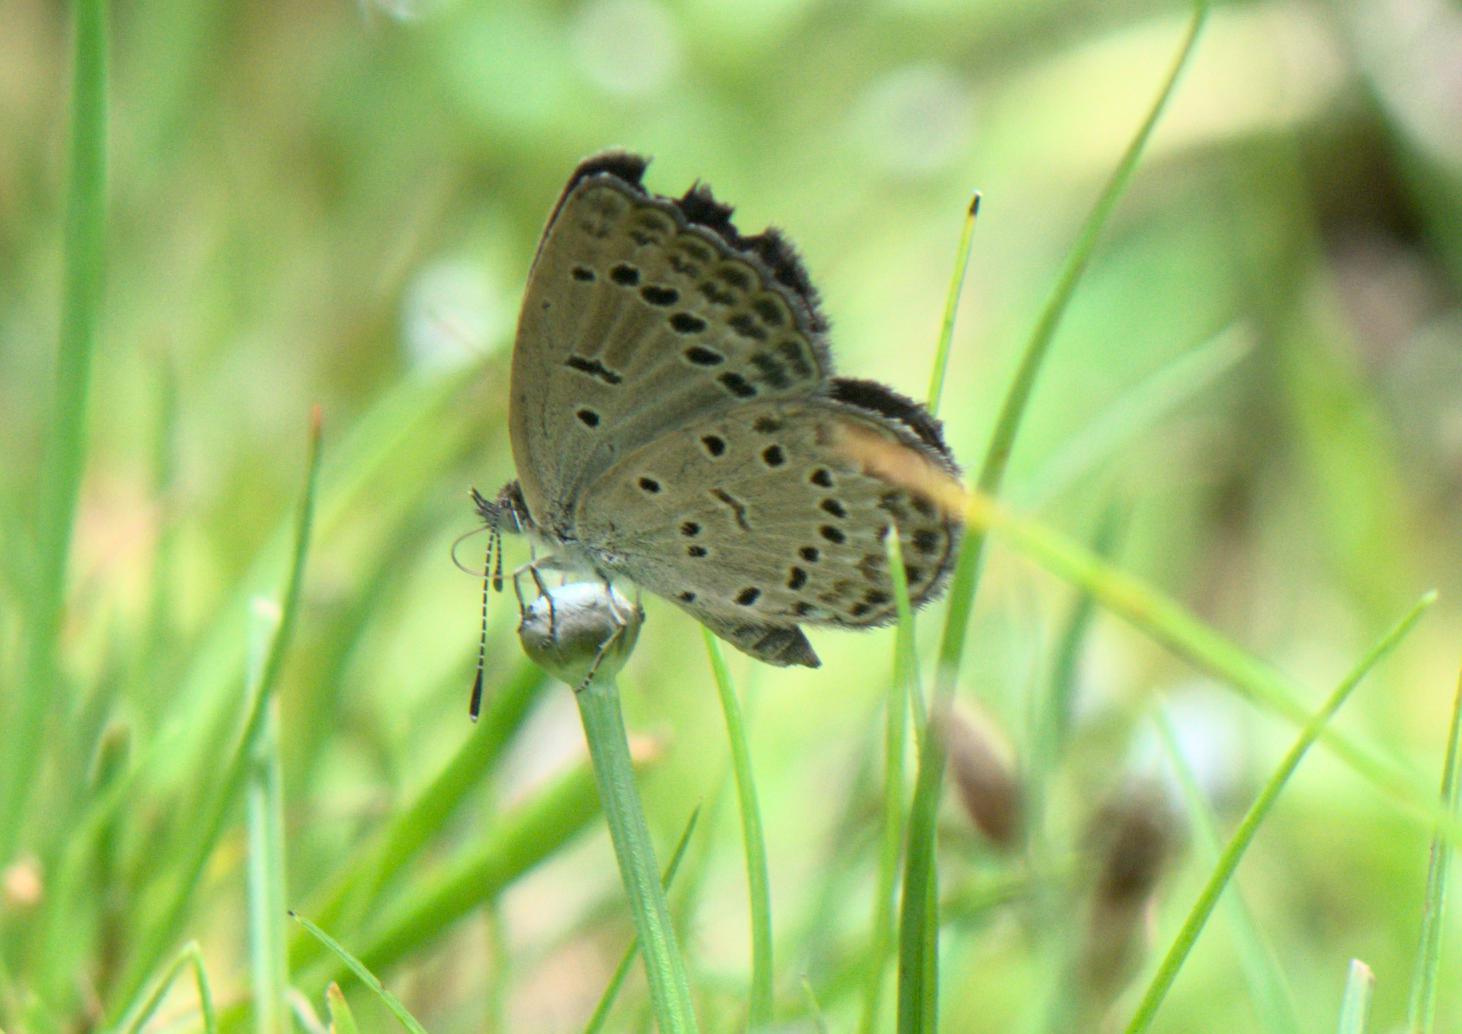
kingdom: Animalia
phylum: Arthropoda
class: Insecta
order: Lepidoptera
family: Lycaenidae
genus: Pseudozizeeria
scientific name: Pseudozizeeria maha
